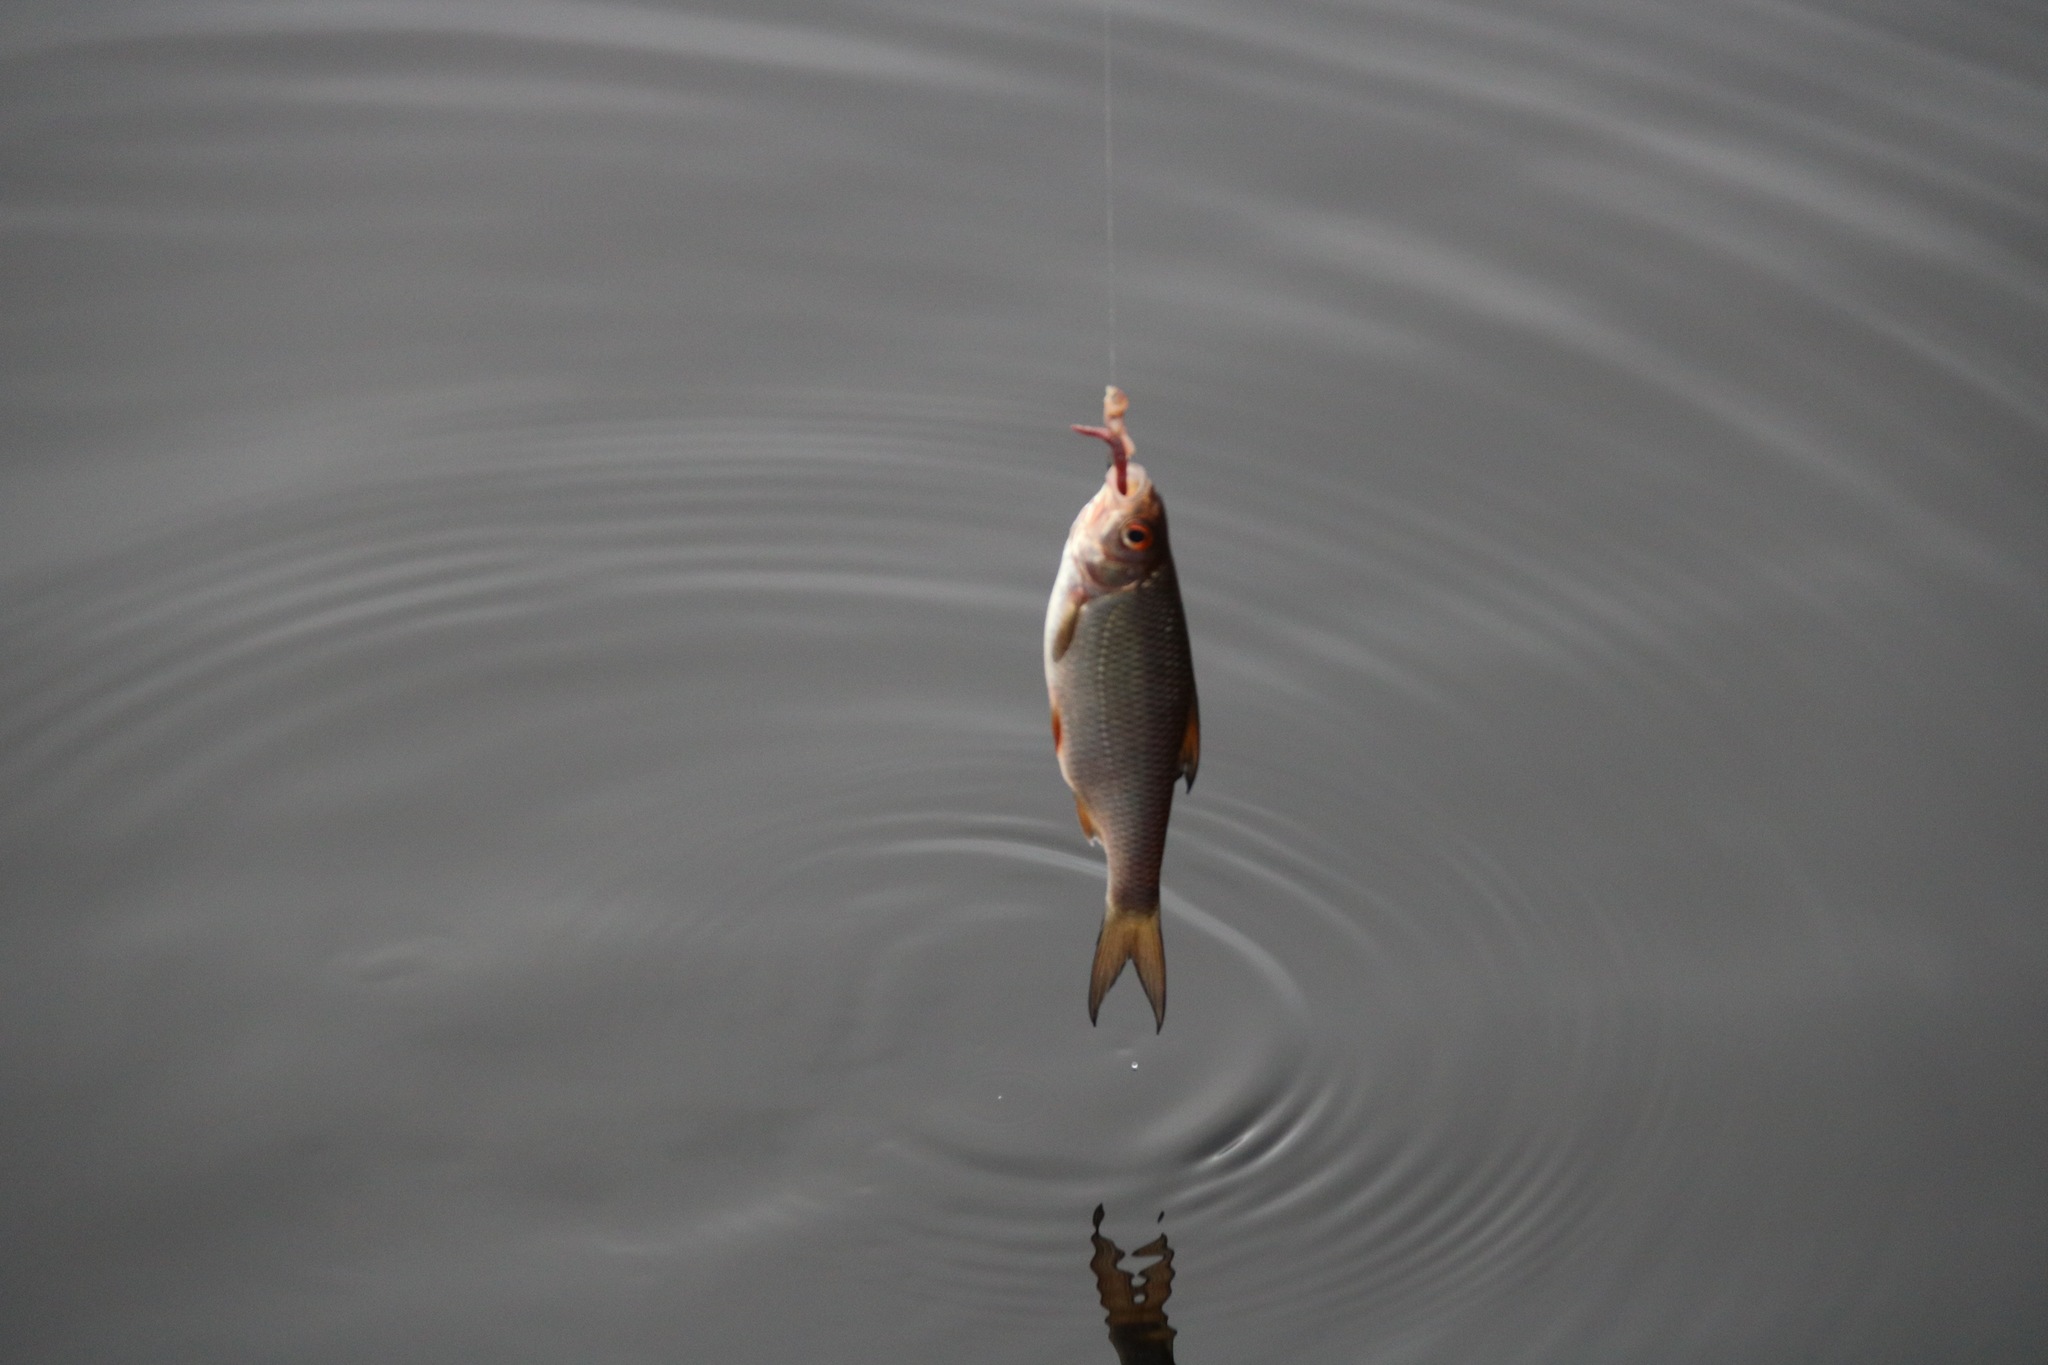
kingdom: Animalia
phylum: Chordata
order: Cypriniformes
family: Cyprinidae
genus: Rutilus
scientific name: Rutilus rutilus
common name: Roach
